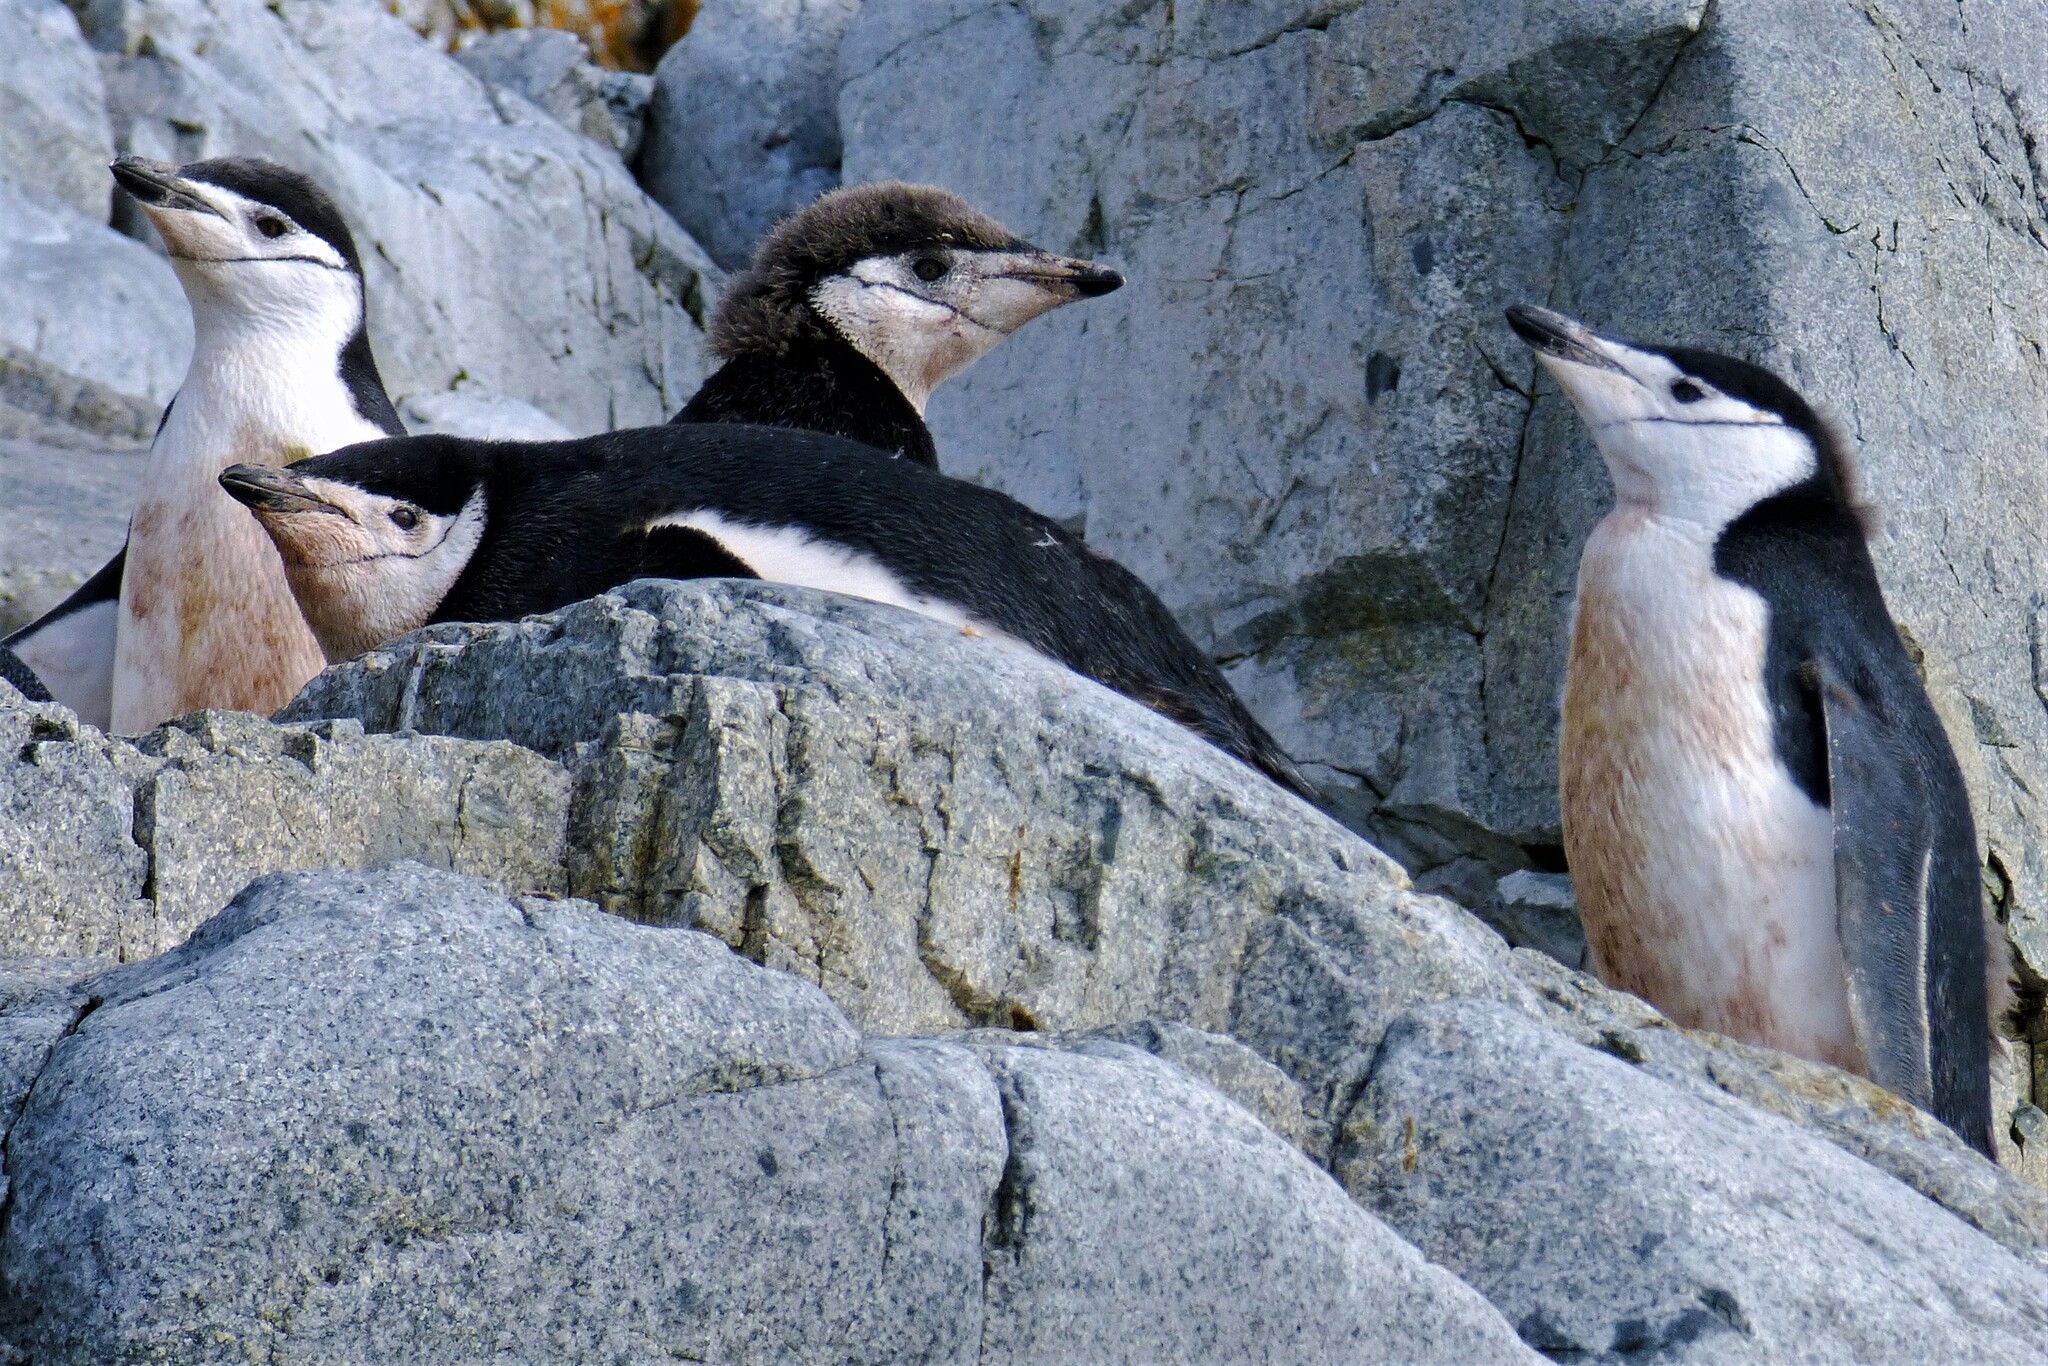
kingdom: Animalia
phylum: Chordata
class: Aves
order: Sphenisciformes
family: Spheniscidae
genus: Pygoscelis
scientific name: Pygoscelis antarcticus
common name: Chinstrap penguin
